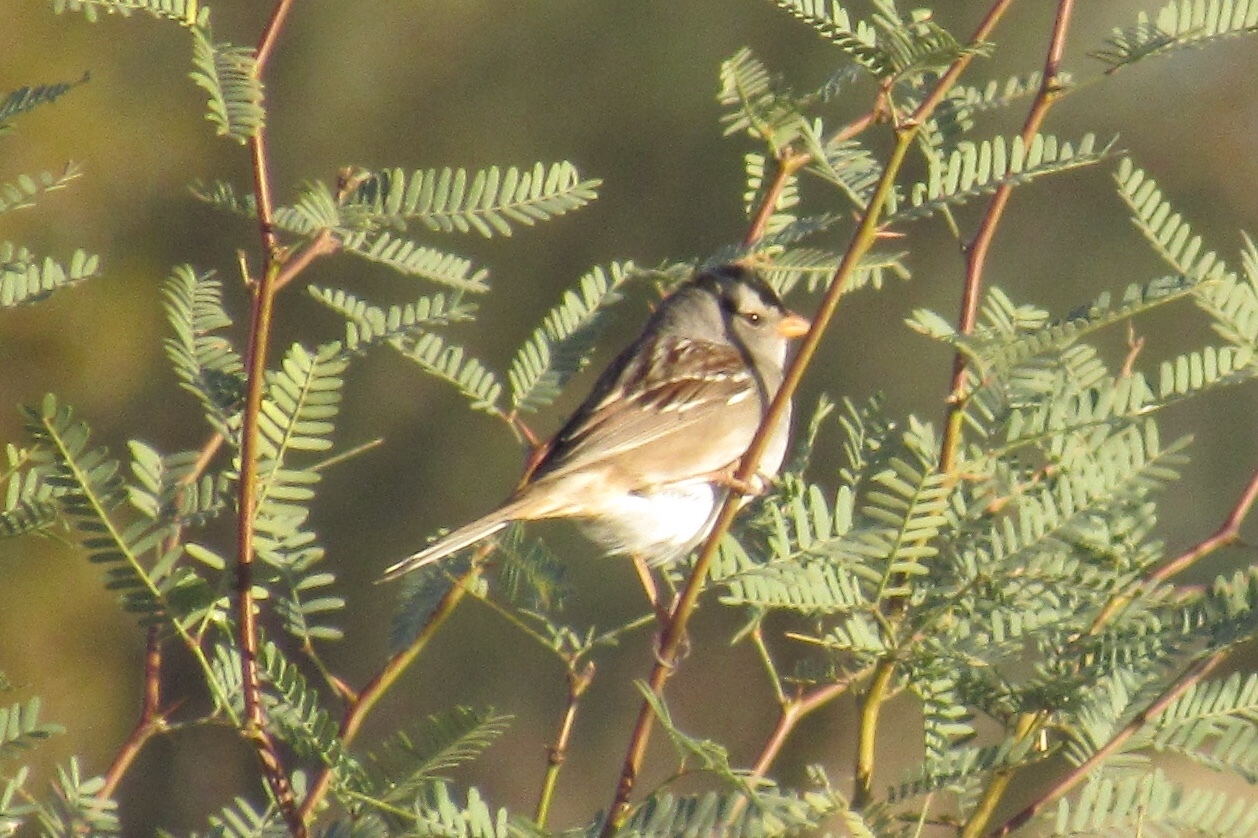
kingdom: Animalia
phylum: Chordata
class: Aves
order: Passeriformes
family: Passerellidae
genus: Zonotrichia
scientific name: Zonotrichia leucophrys
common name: White-crowned sparrow
